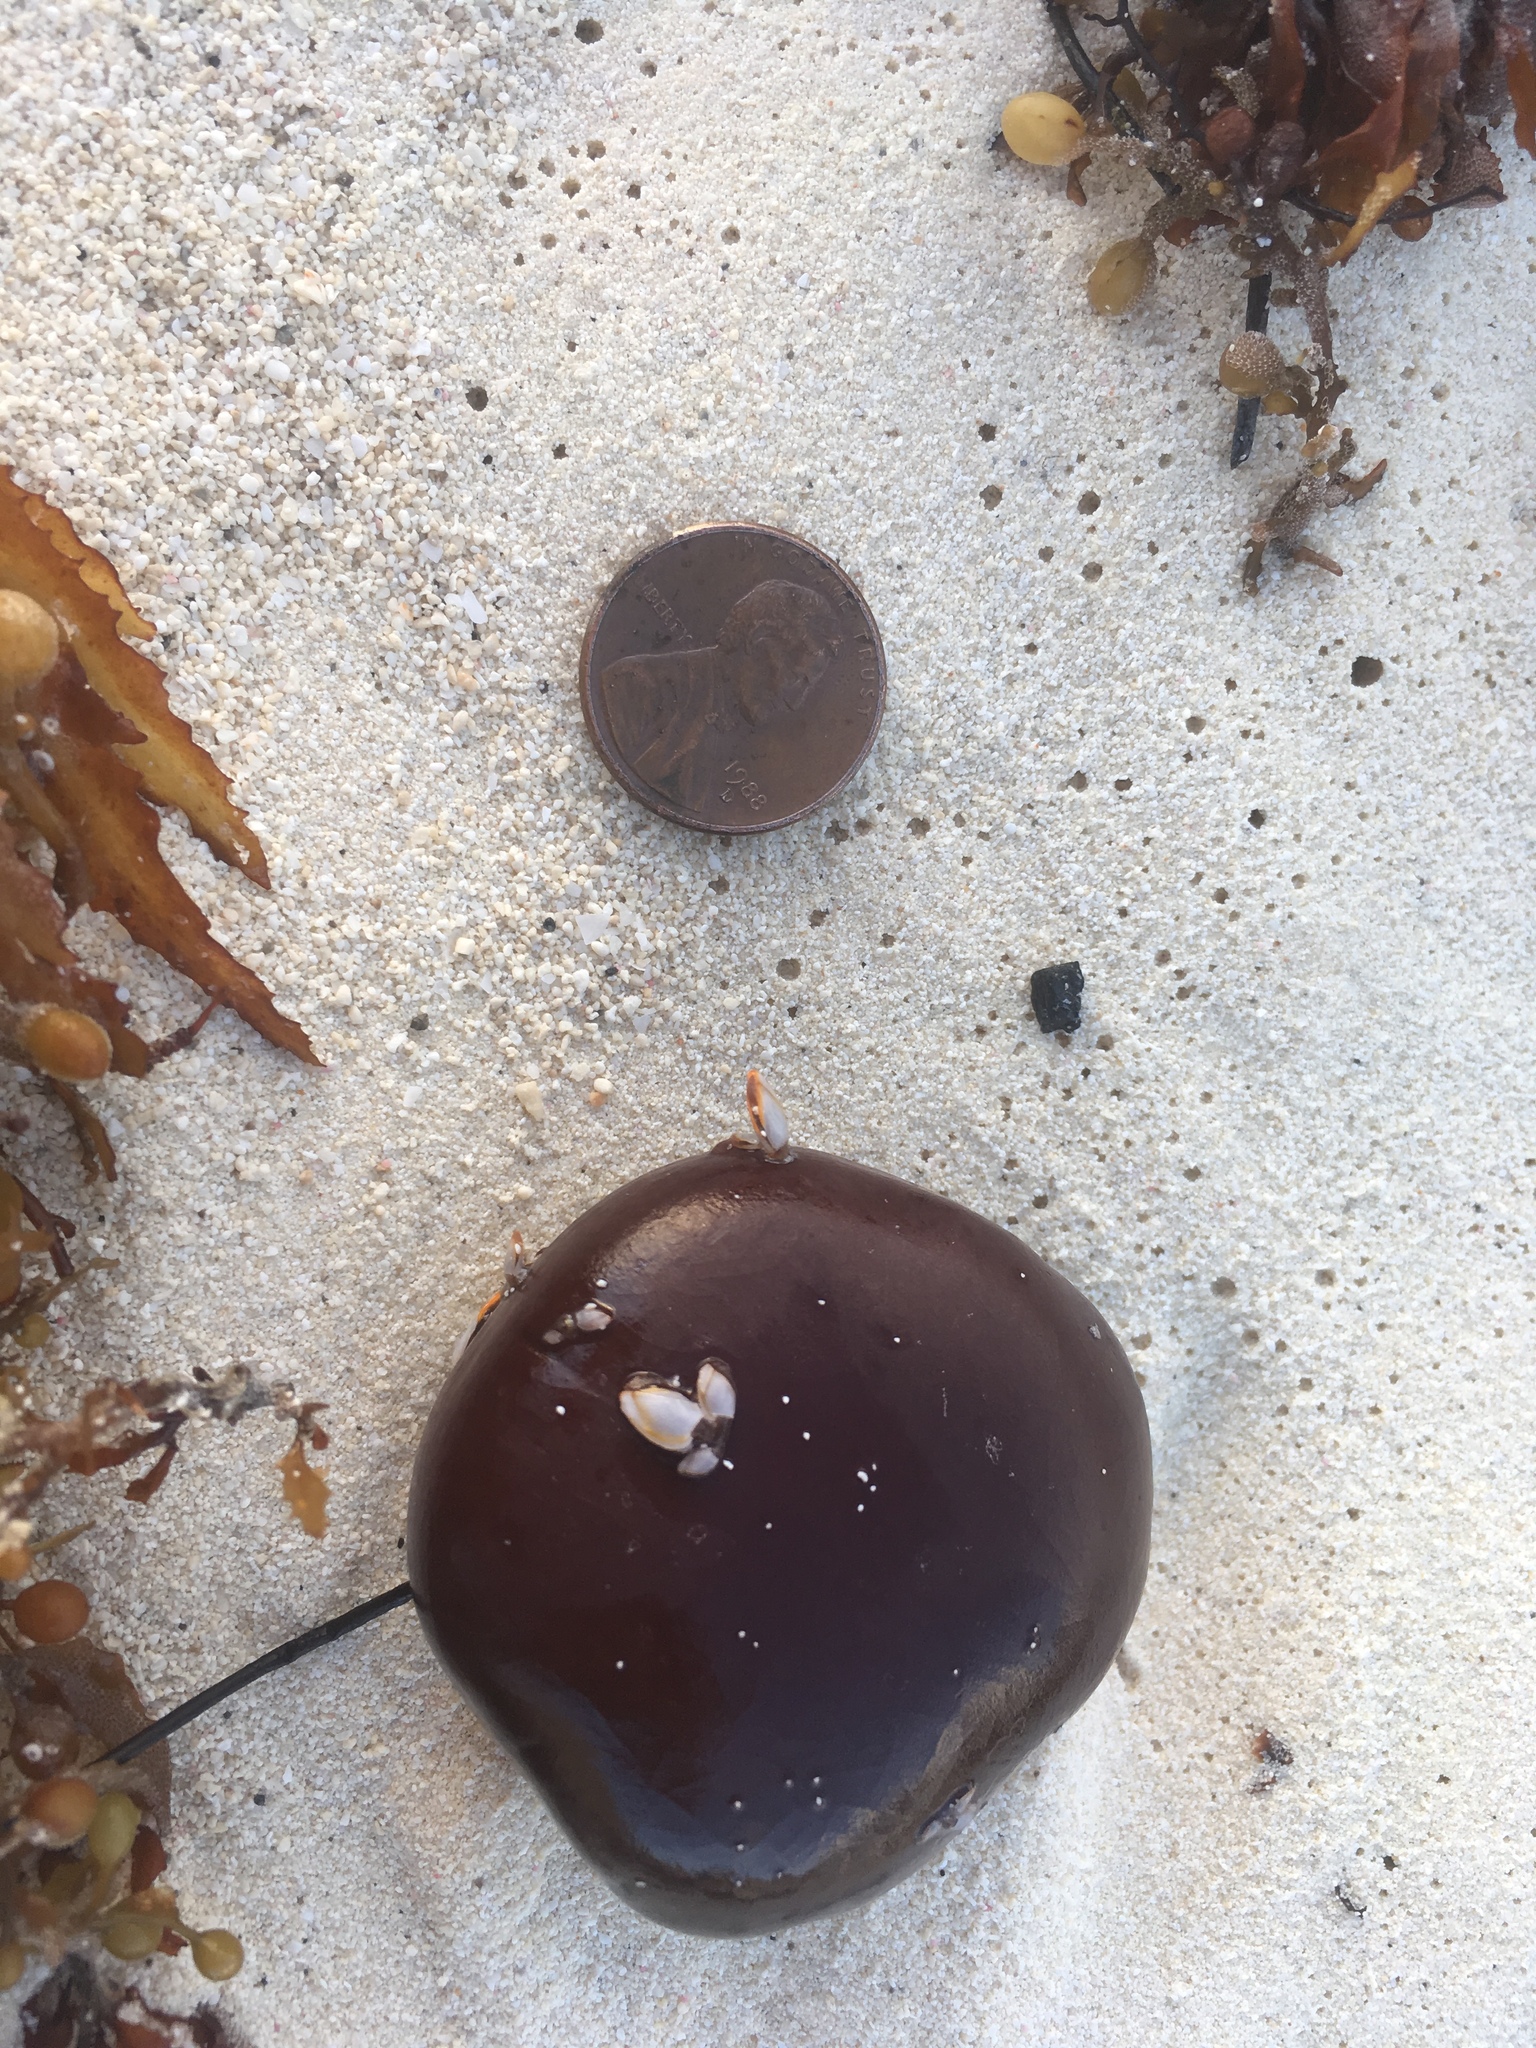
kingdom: Plantae
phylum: Tracheophyta
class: Magnoliopsida
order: Fabales
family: Fabaceae
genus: Entada
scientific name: Entada gigas
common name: Nicker-bean
